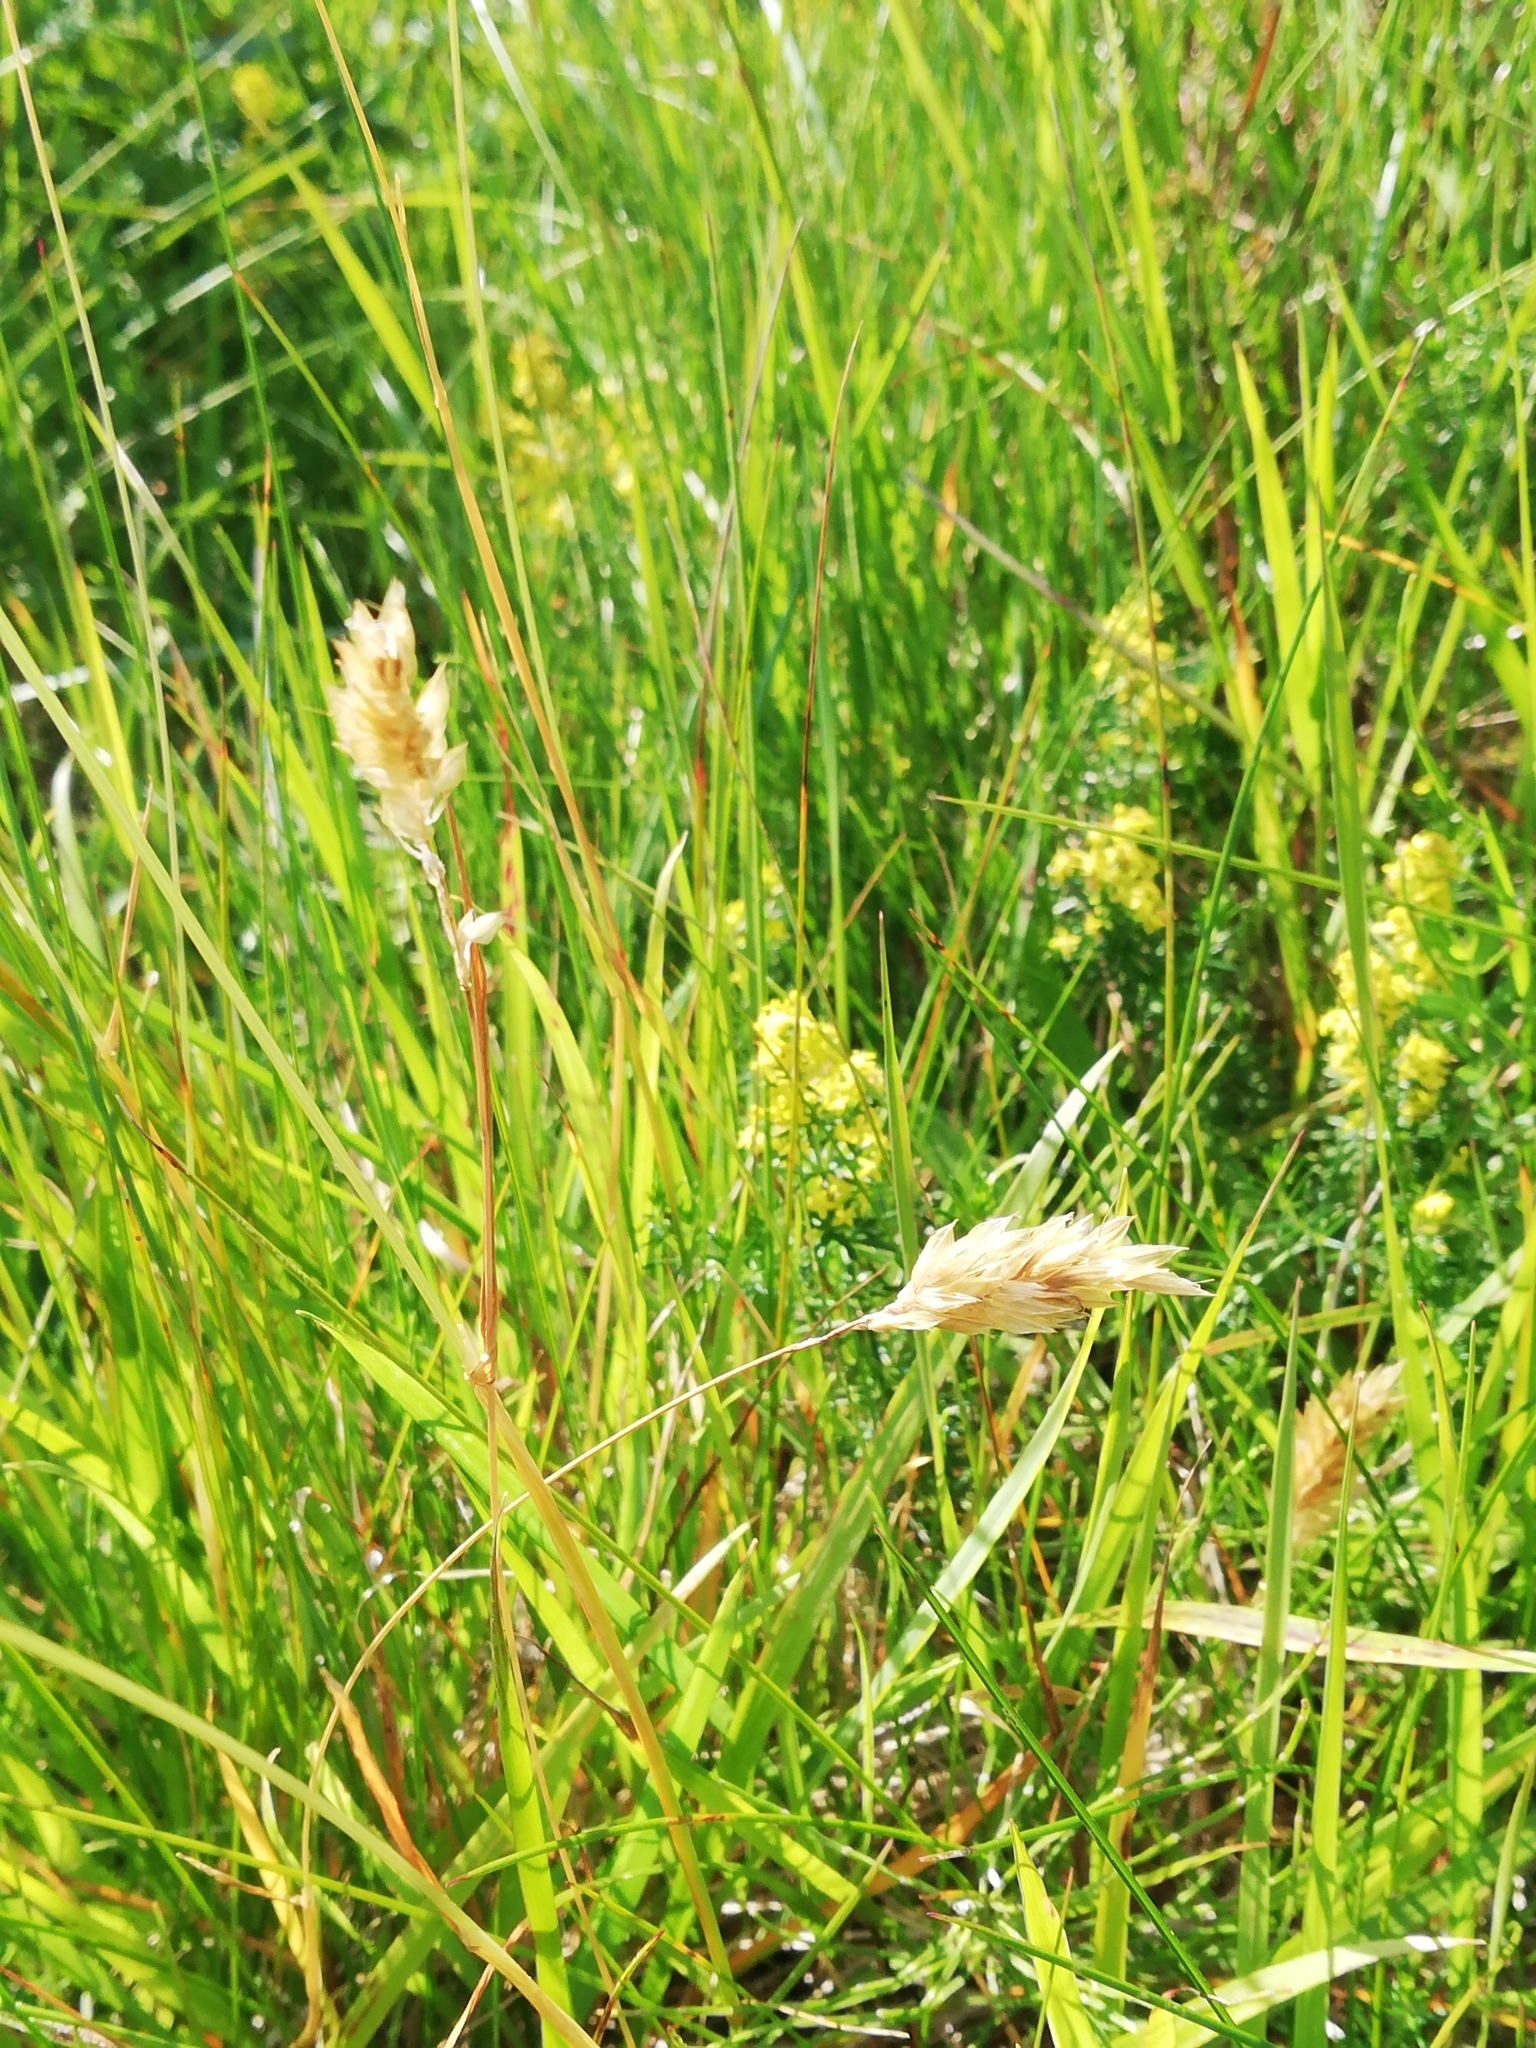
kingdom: Plantae
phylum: Tracheophyta
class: Liliopsida
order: Poales
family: Poaceae
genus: Anthoxanthum
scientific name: Anthoxanthum odoratum
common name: Sweet vernalgrass
